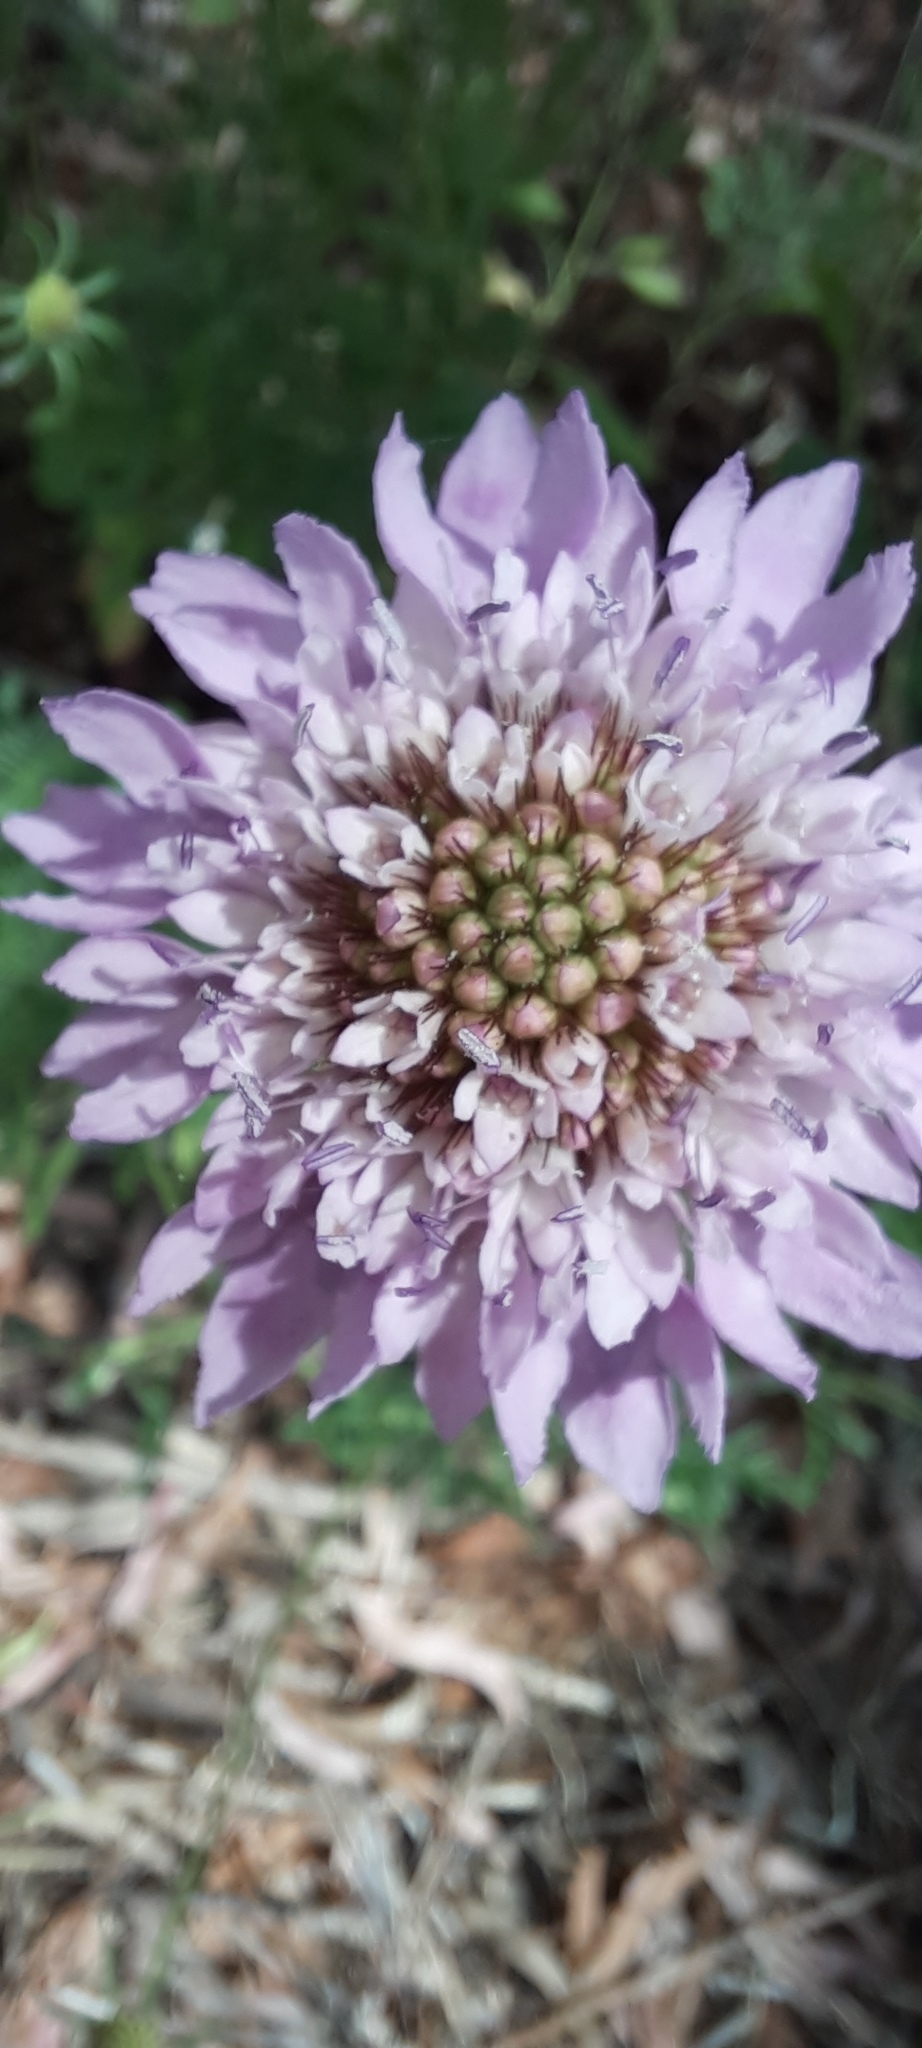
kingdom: Plantae
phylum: Tracheophyta
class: Magnoliopsida
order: Dipsacales
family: Caprifoliaceae
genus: Sixalix
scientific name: Sixalix atropurpurea
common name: Sweet scabious
